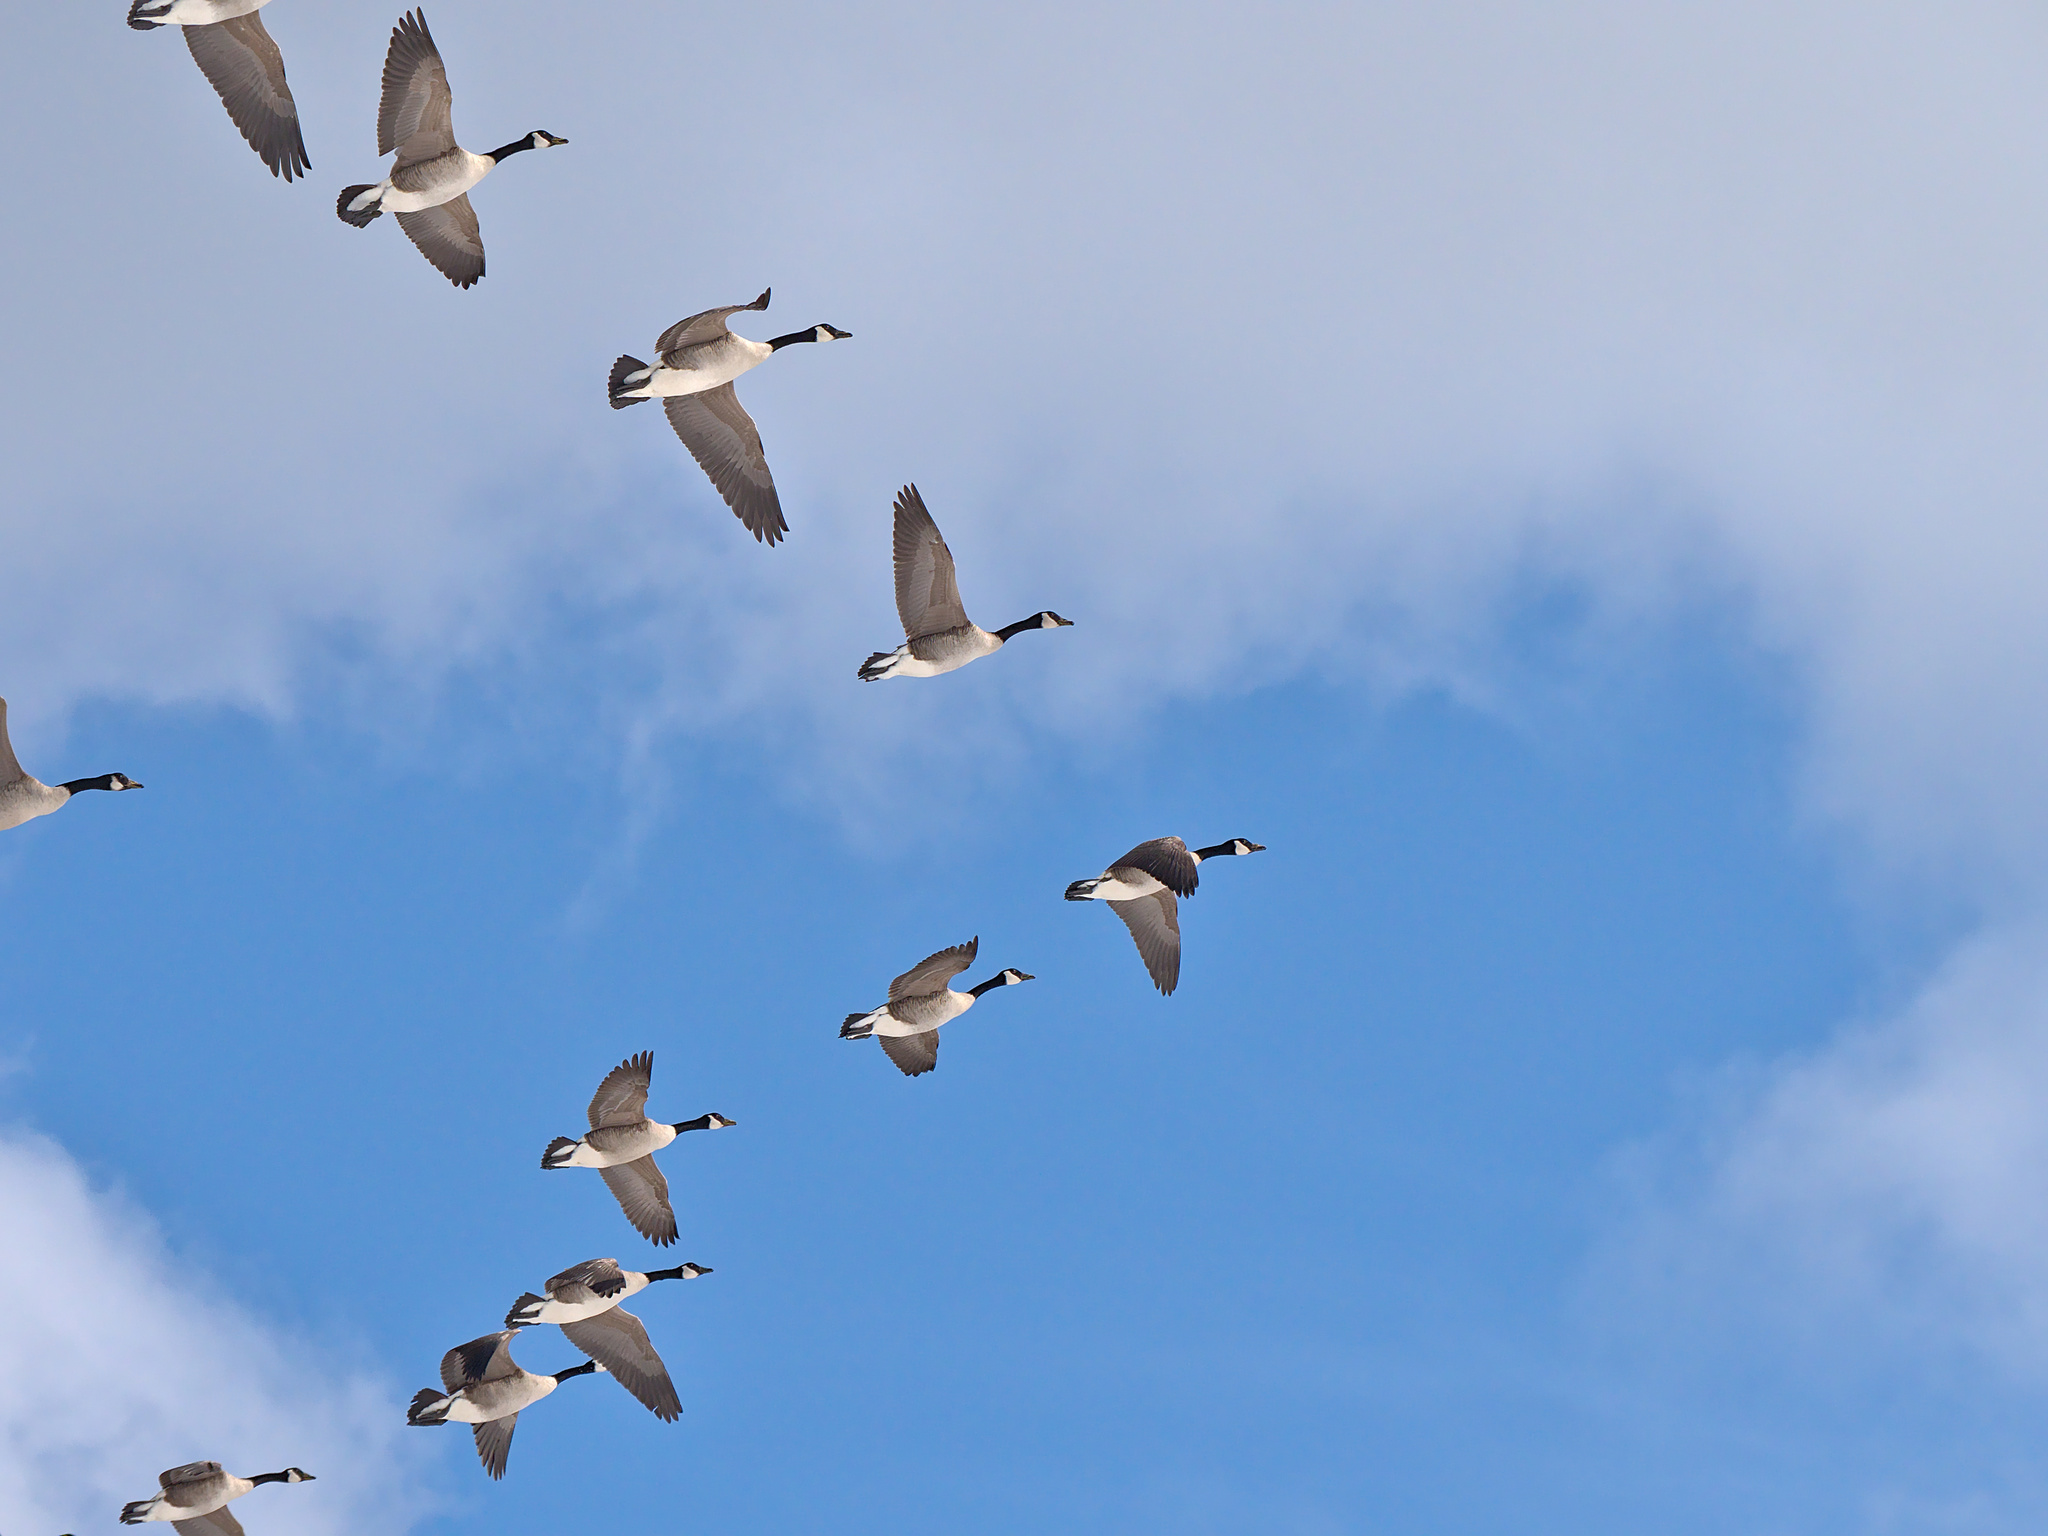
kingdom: Animalia
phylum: Chordata
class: Aves
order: Anseriformes
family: Anatidae
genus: Branta
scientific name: Branta canadensis
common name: Canada goose
